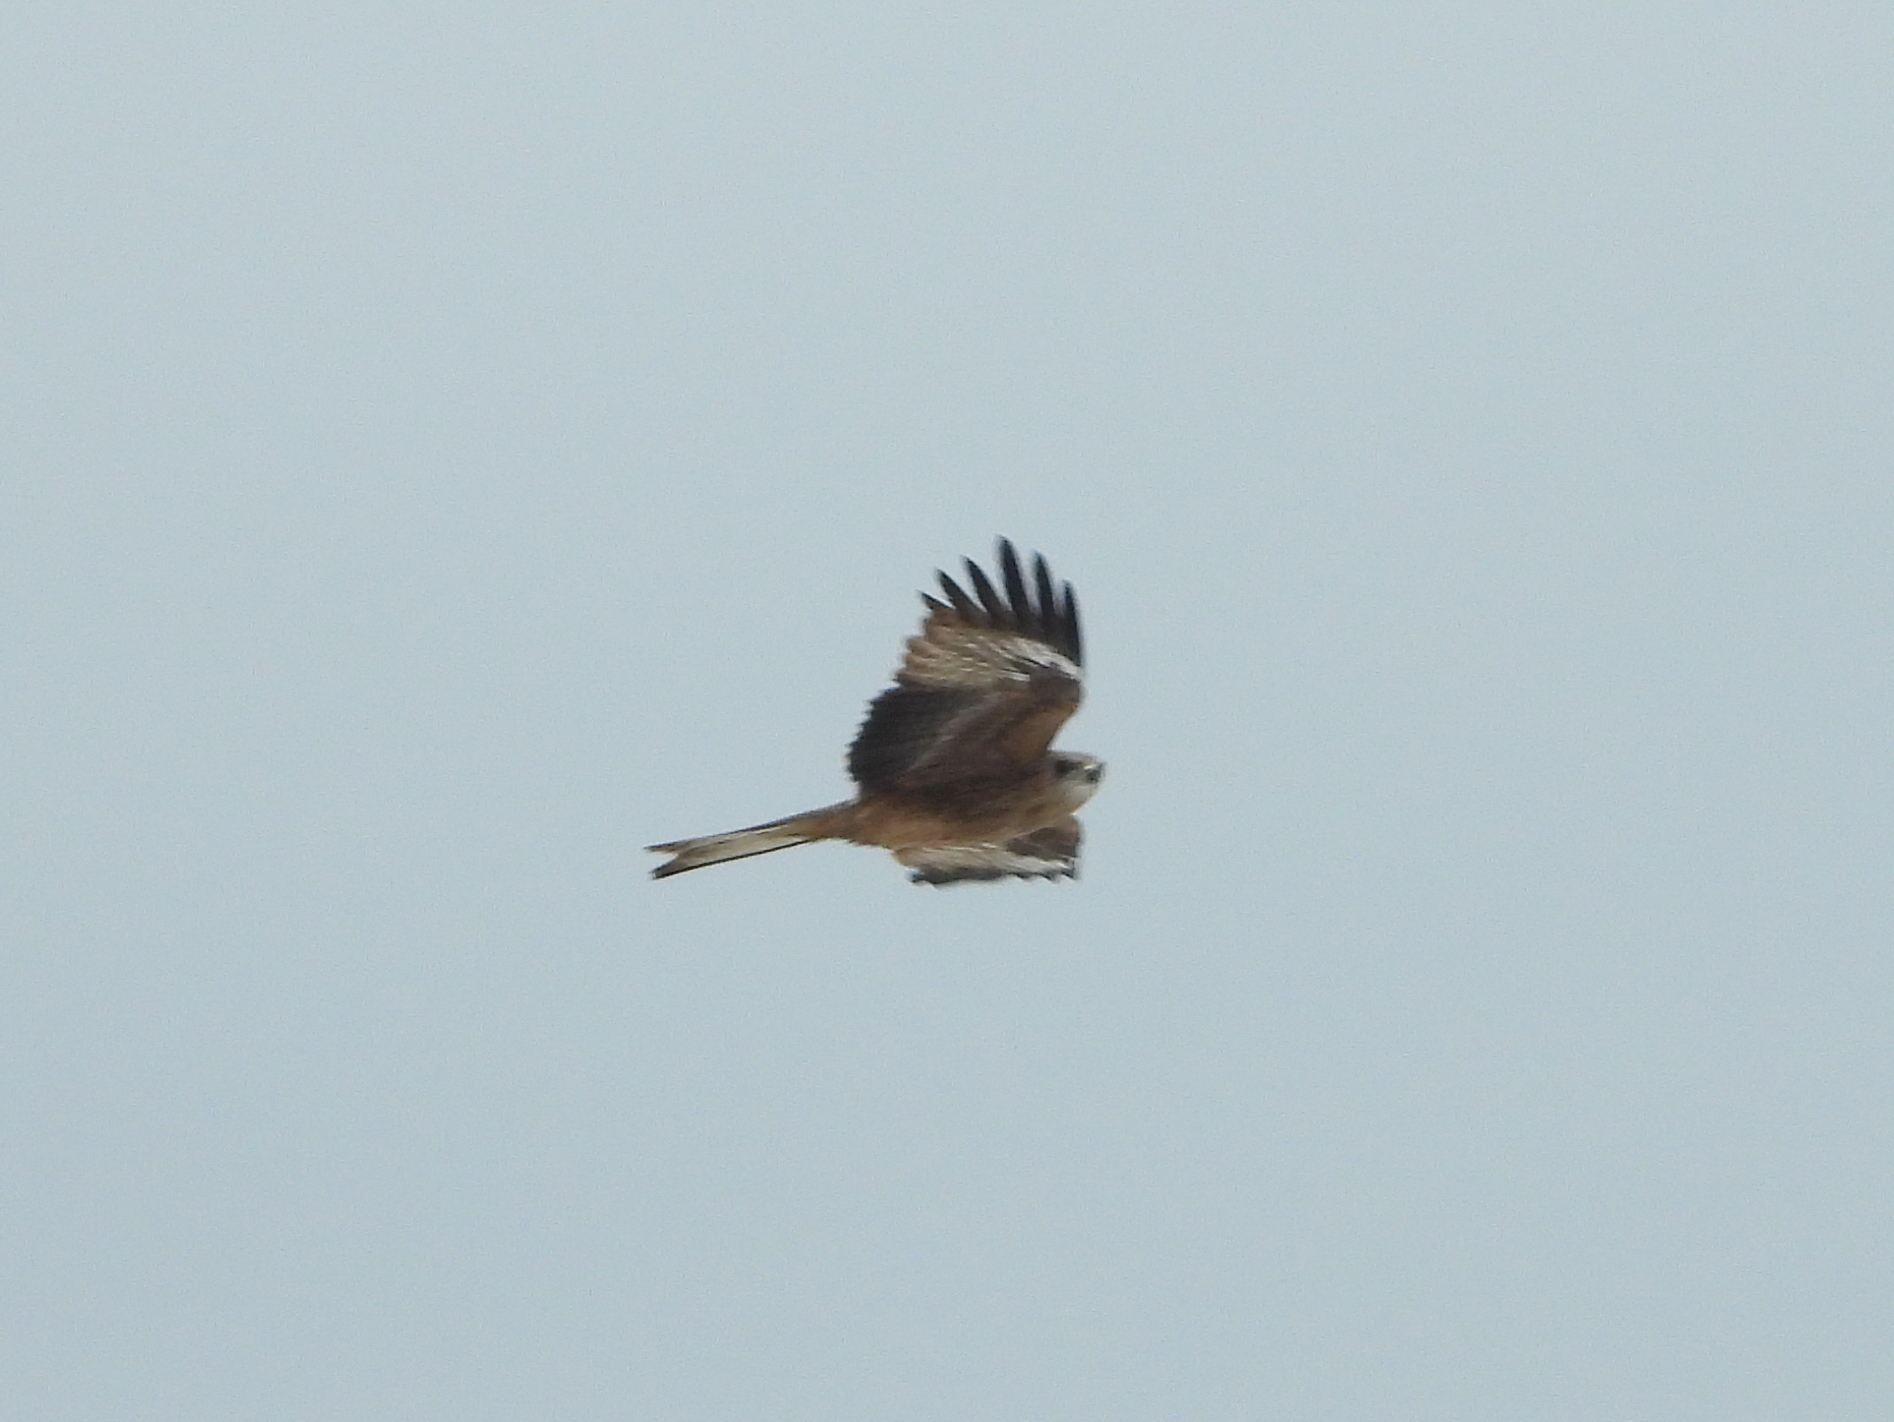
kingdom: Animalia
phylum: Chordata
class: Aves
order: Accipitriformes
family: Accipitridae
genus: Milvus
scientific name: Milvus migrans
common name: Black kite
